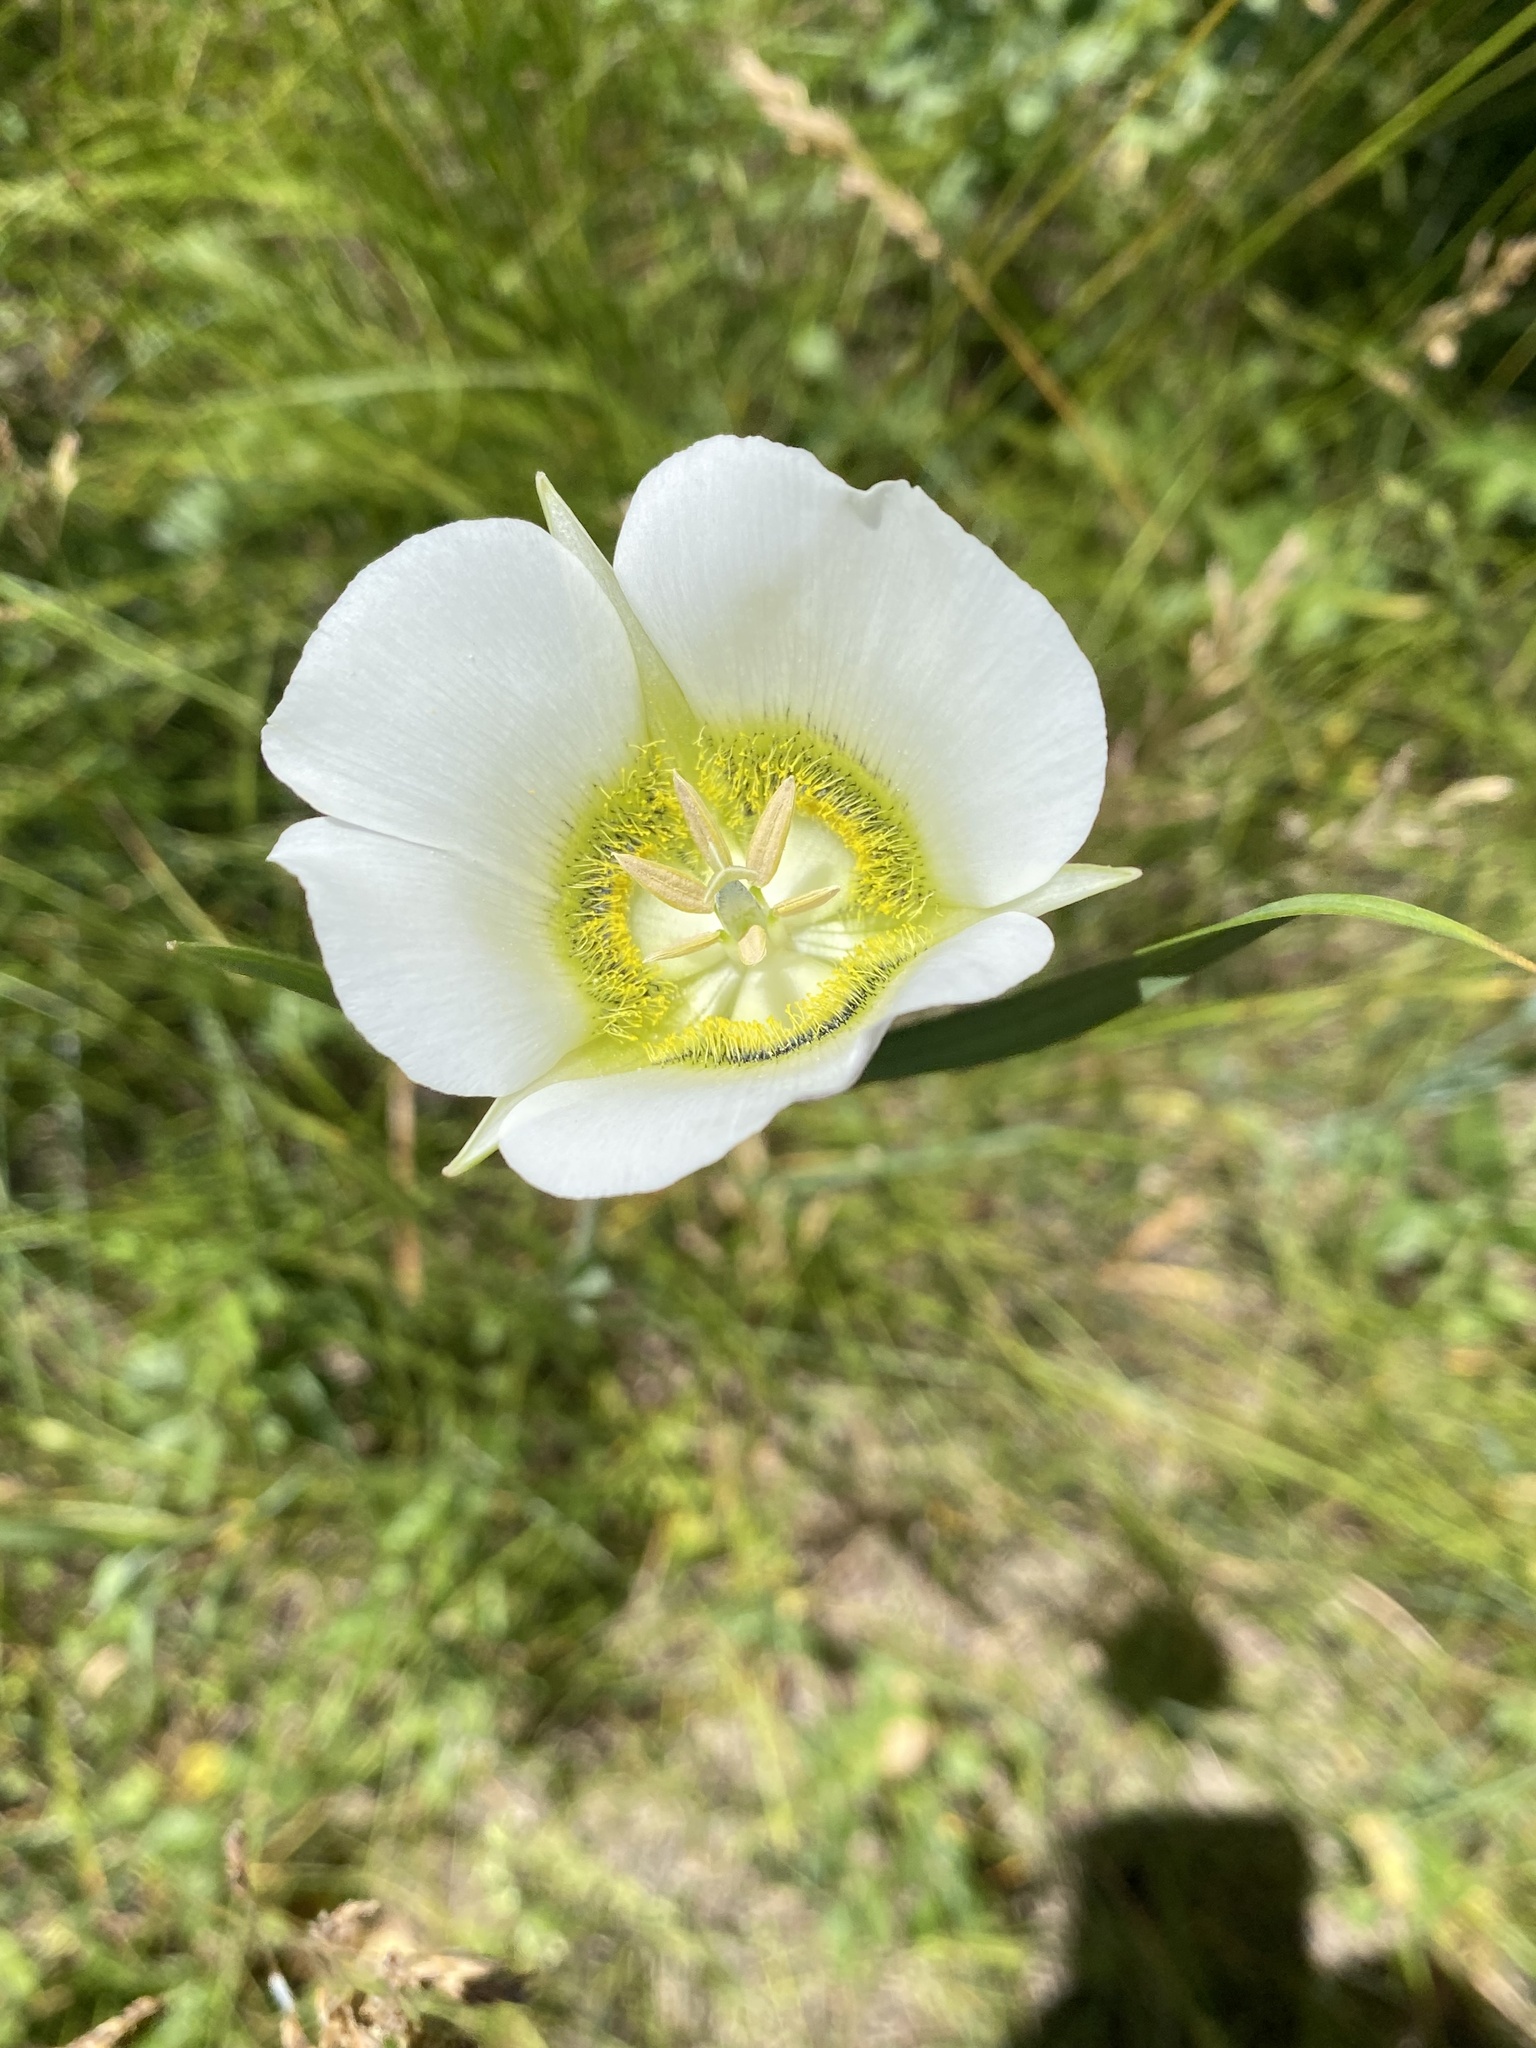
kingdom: Plantae
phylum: Tracheophyta
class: Liliopsida
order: Liliales
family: Liliaceae
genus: Calochortus
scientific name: Calochortus gunnisonii
